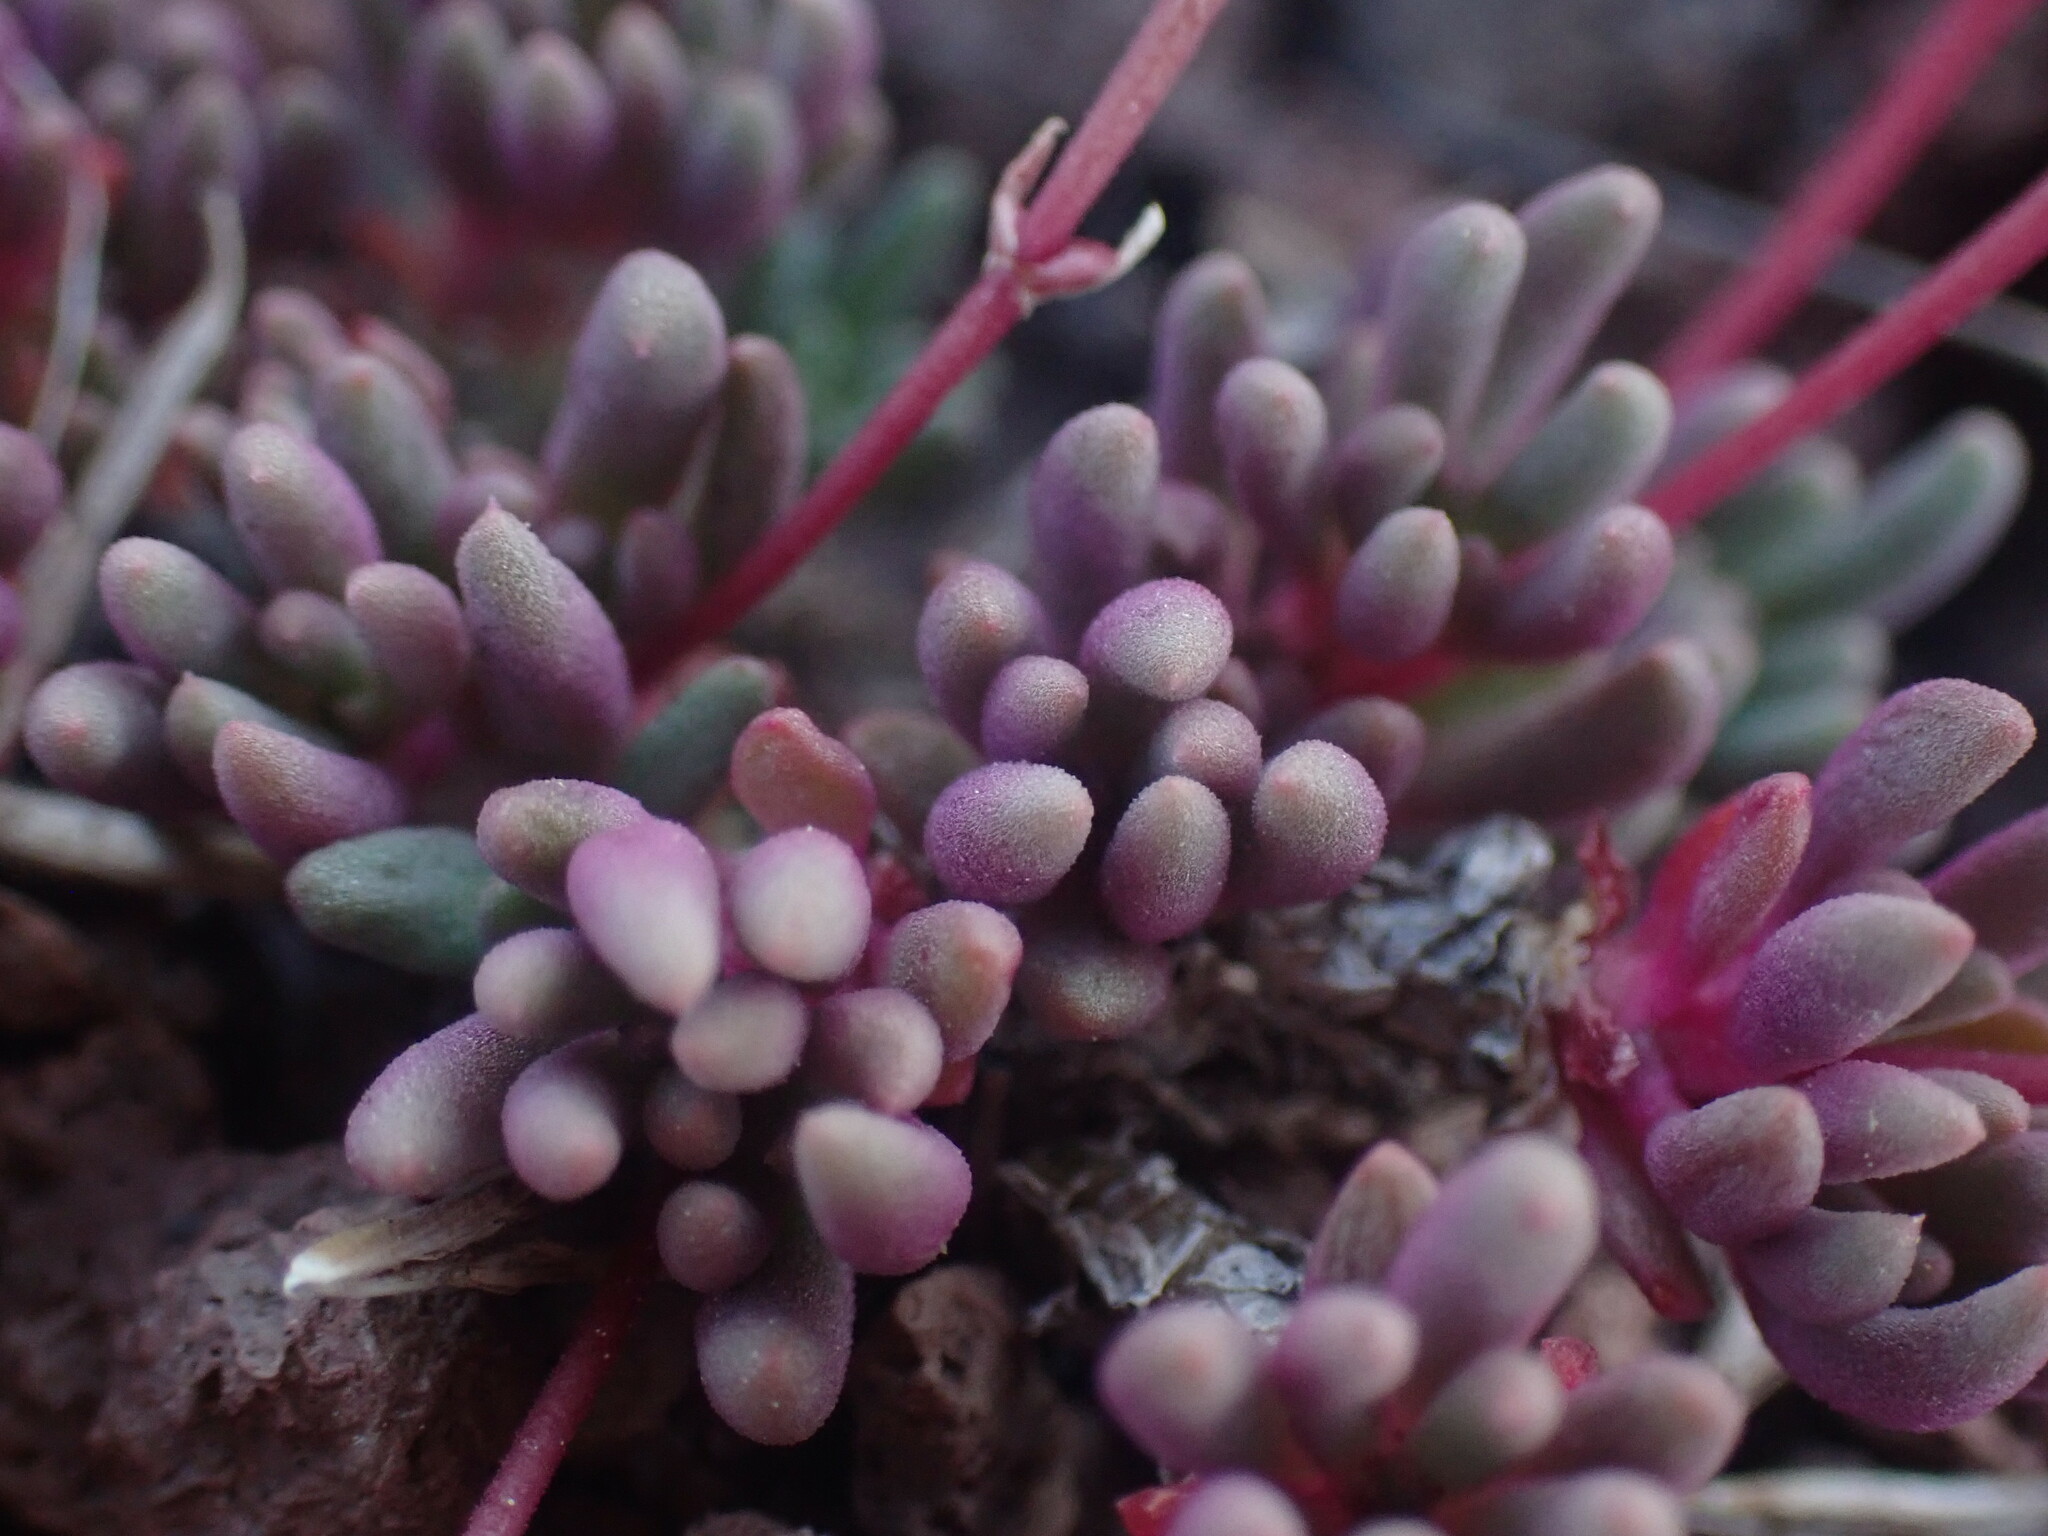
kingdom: Plantae
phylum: Tracheophyta
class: Magnoliopsida
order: Caryophyllales
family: Montiaceae
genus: Phemeranthus
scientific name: Phemeranthus sediformis
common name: Okanogan fameflower
